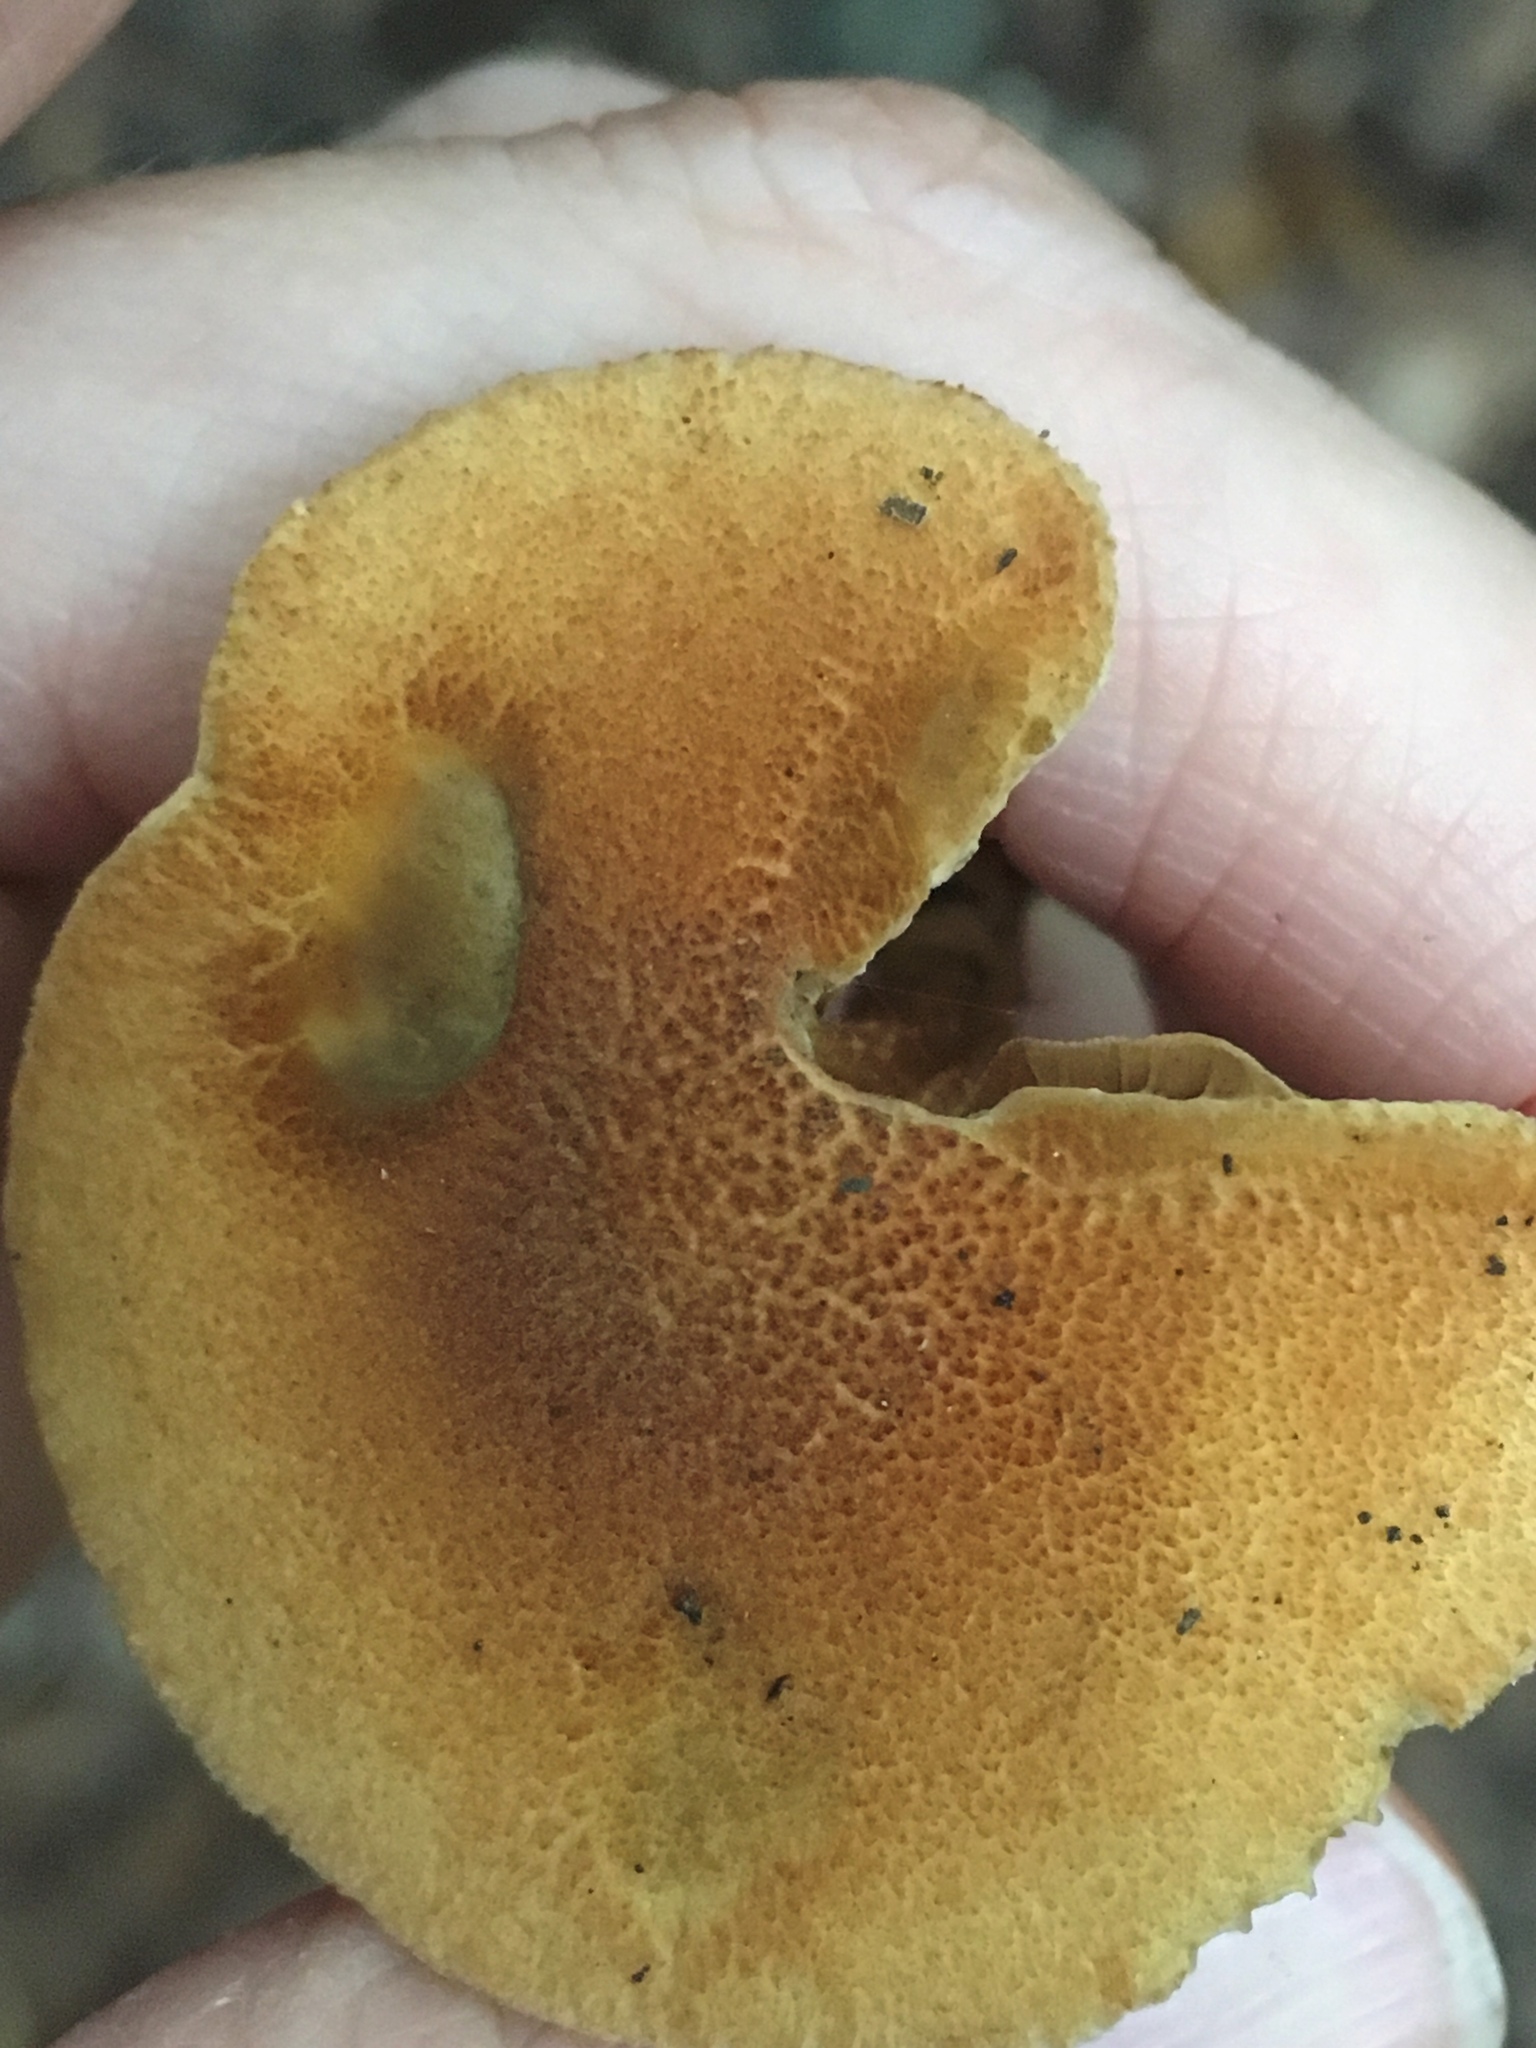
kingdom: Fungi
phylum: Basidiomycota
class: Agaricomycetes
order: Agaricales
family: Inocybaceae
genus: Mallocybe
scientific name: Mallocybe unicolor
